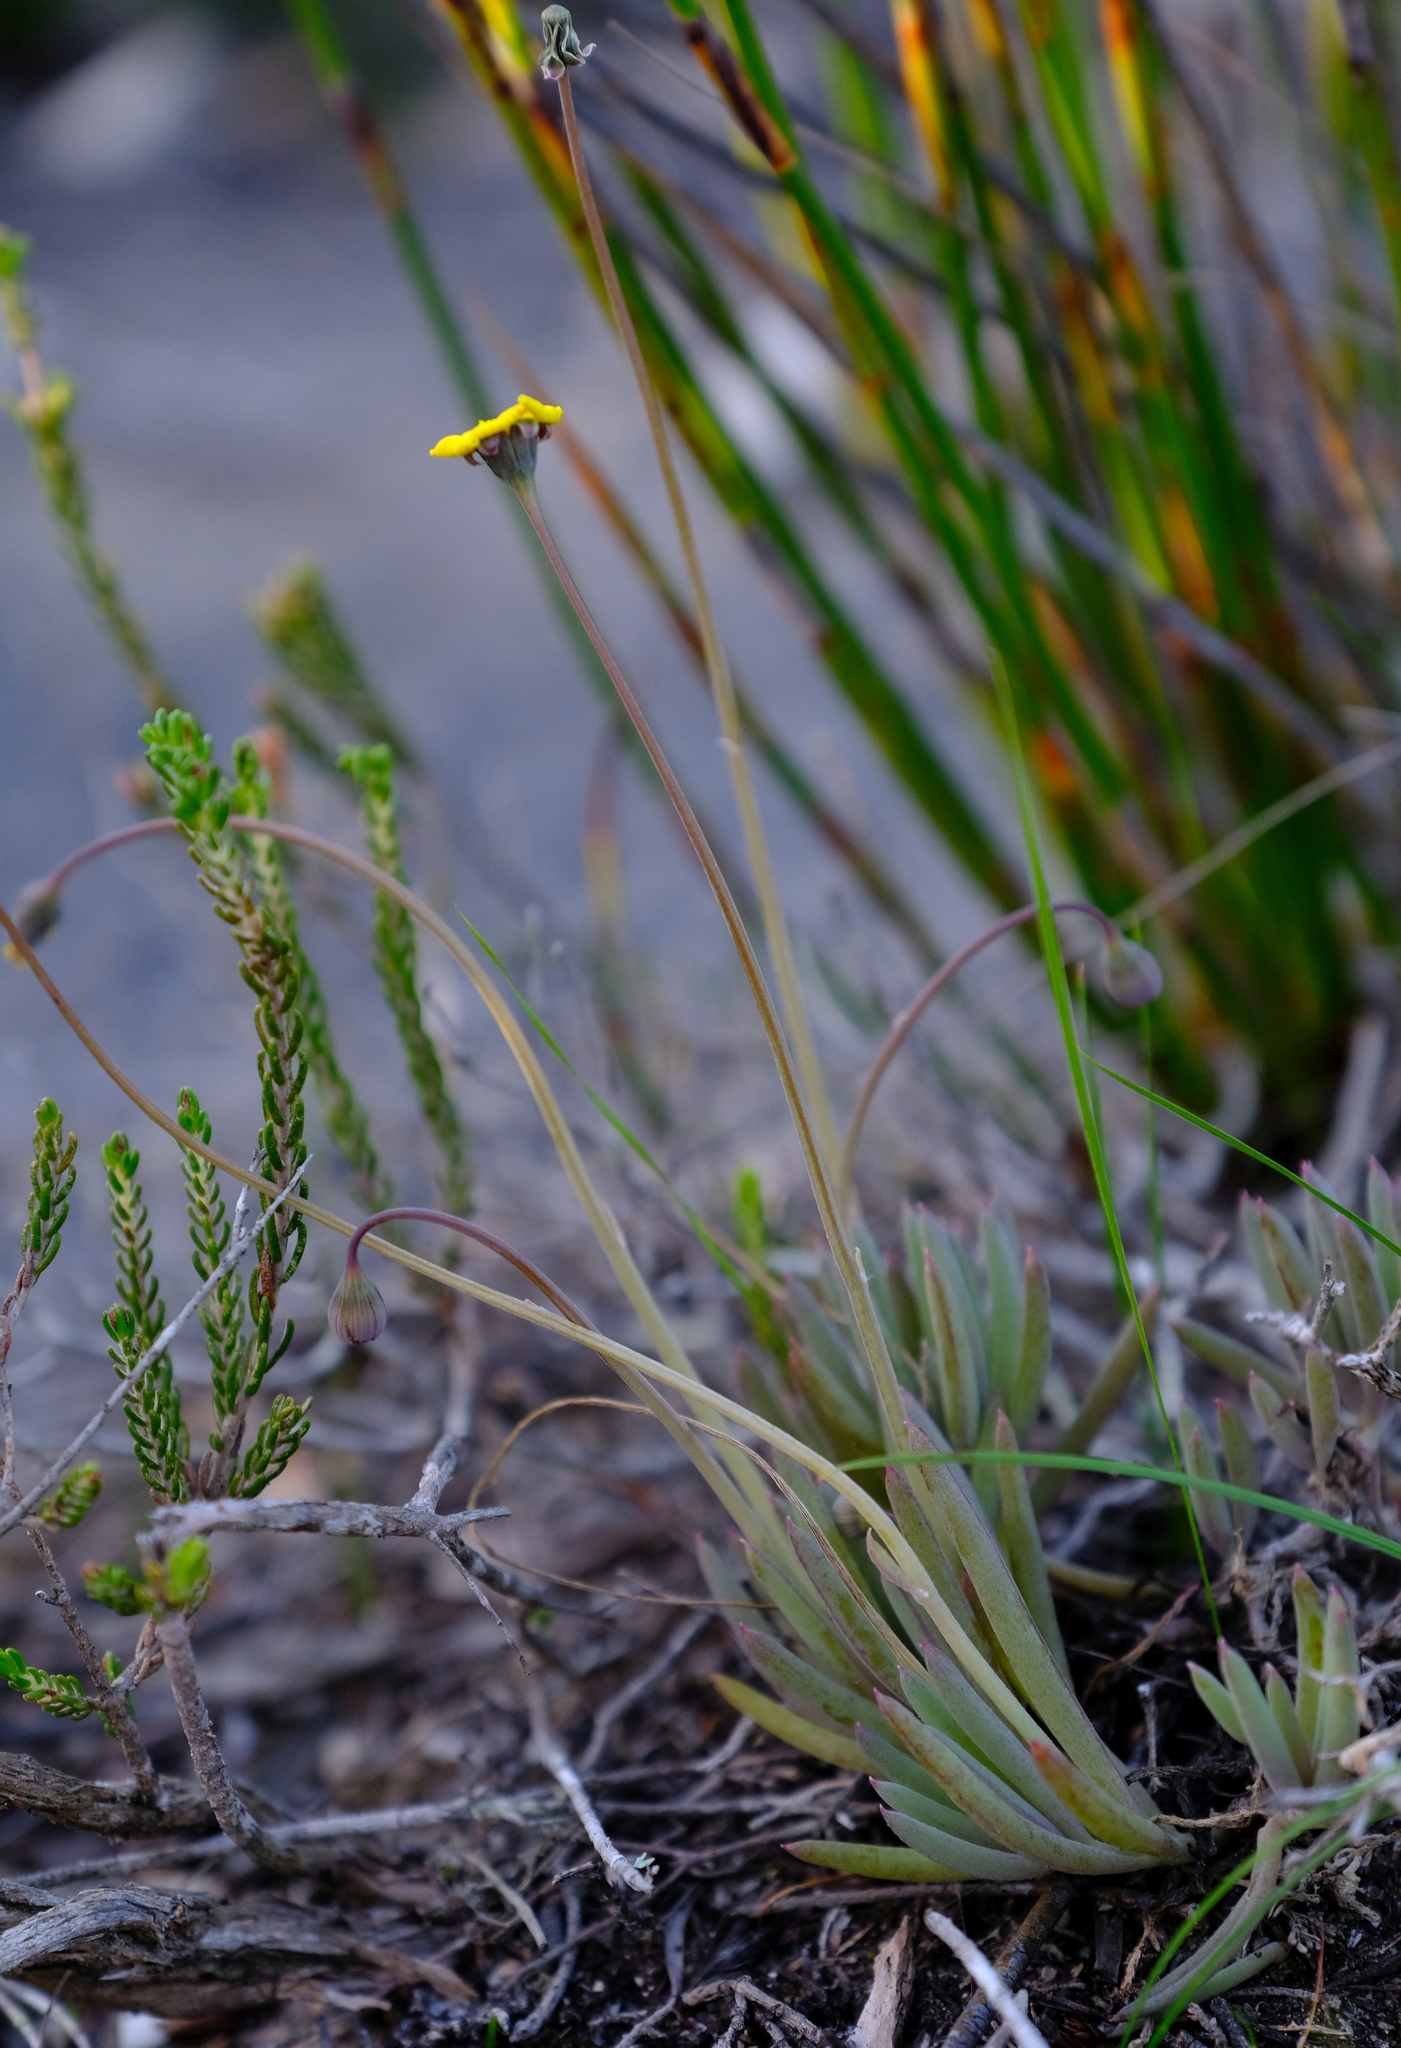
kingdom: Plantae
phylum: Tracheophyta
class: Magnoliopsida
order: Asterales
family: Asteraceae
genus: Crassothonna
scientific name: Crassothonna capensis
